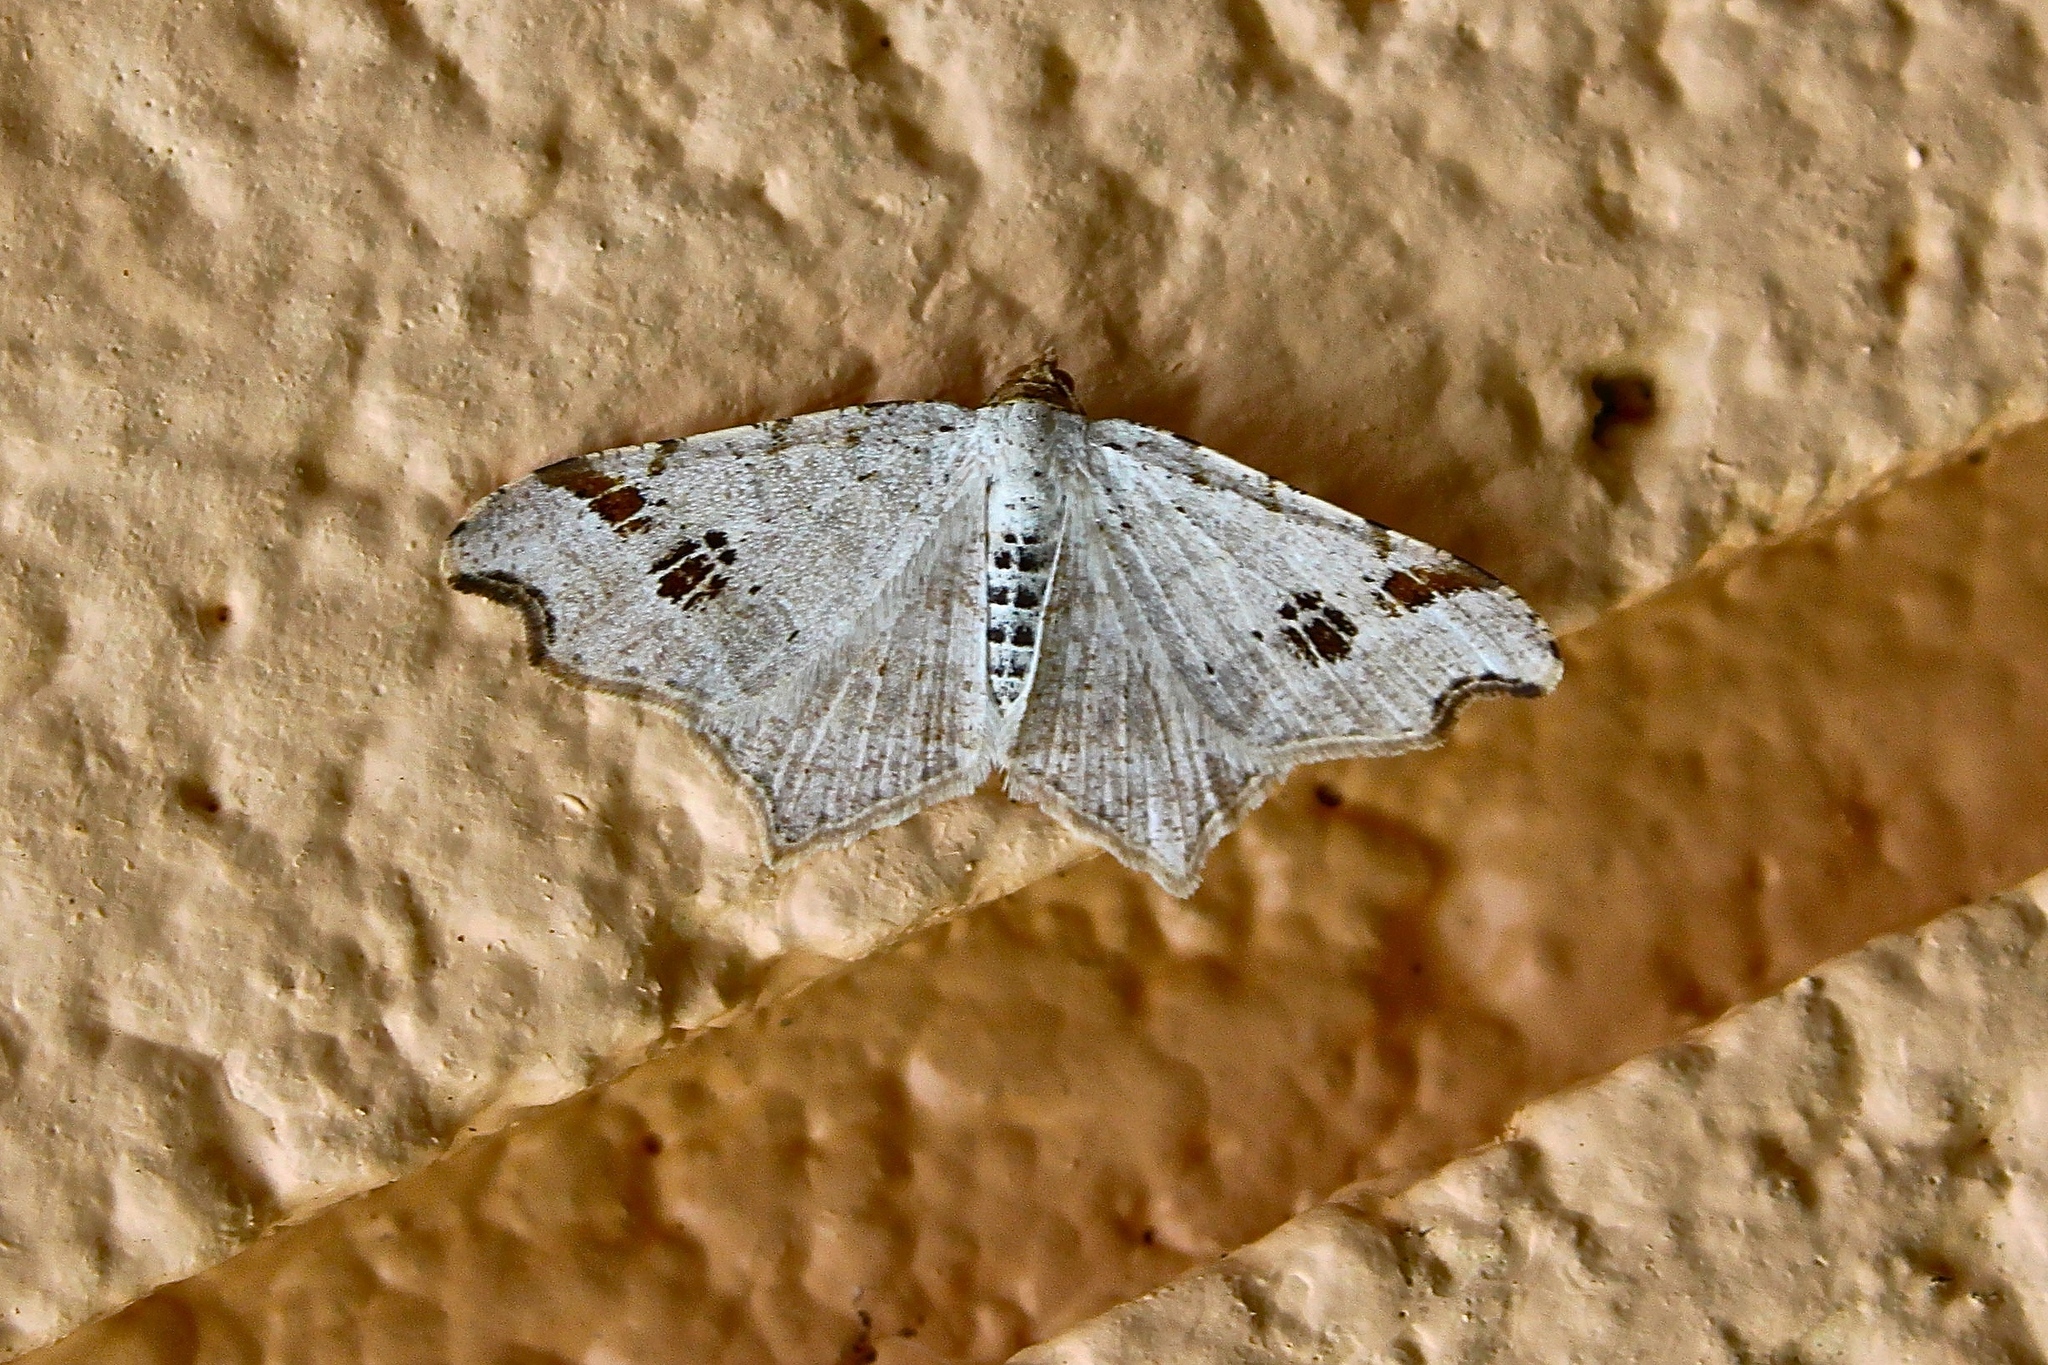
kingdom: Animalia
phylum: Arthropoda
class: Insecta
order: Lepidoptera
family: Geometridae
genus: Macaria
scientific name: Macaria aemulataria
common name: Common angle
